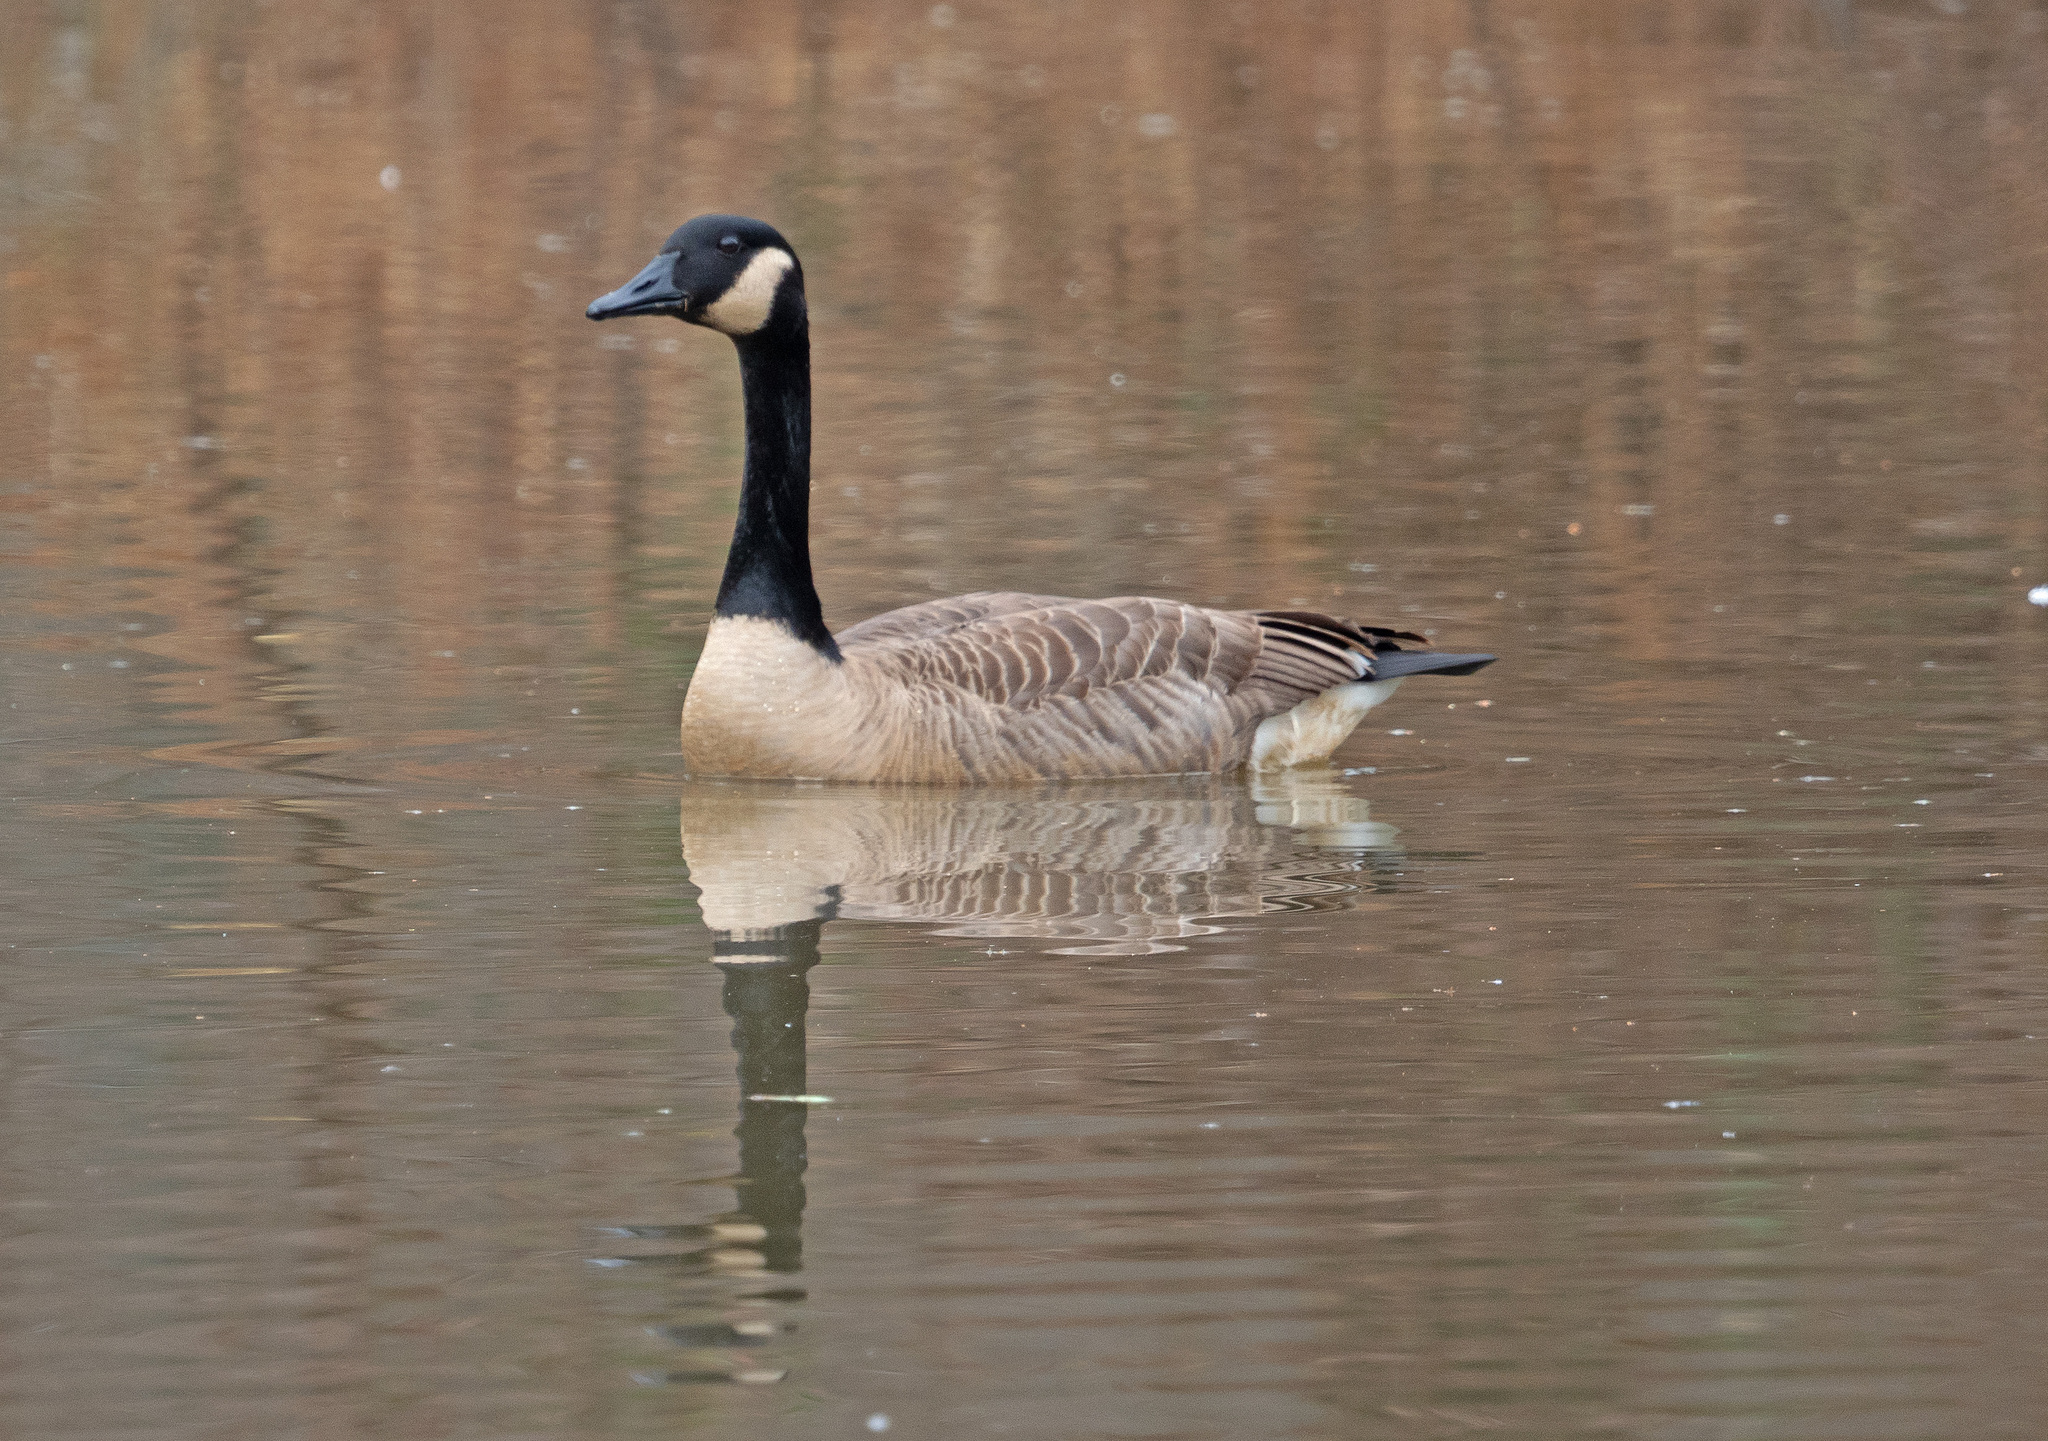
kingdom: Animalia
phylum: Chordata
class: Aves
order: Anseriformes
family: Anatidae
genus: Branta
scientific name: Branta canadensis
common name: Canada goose
